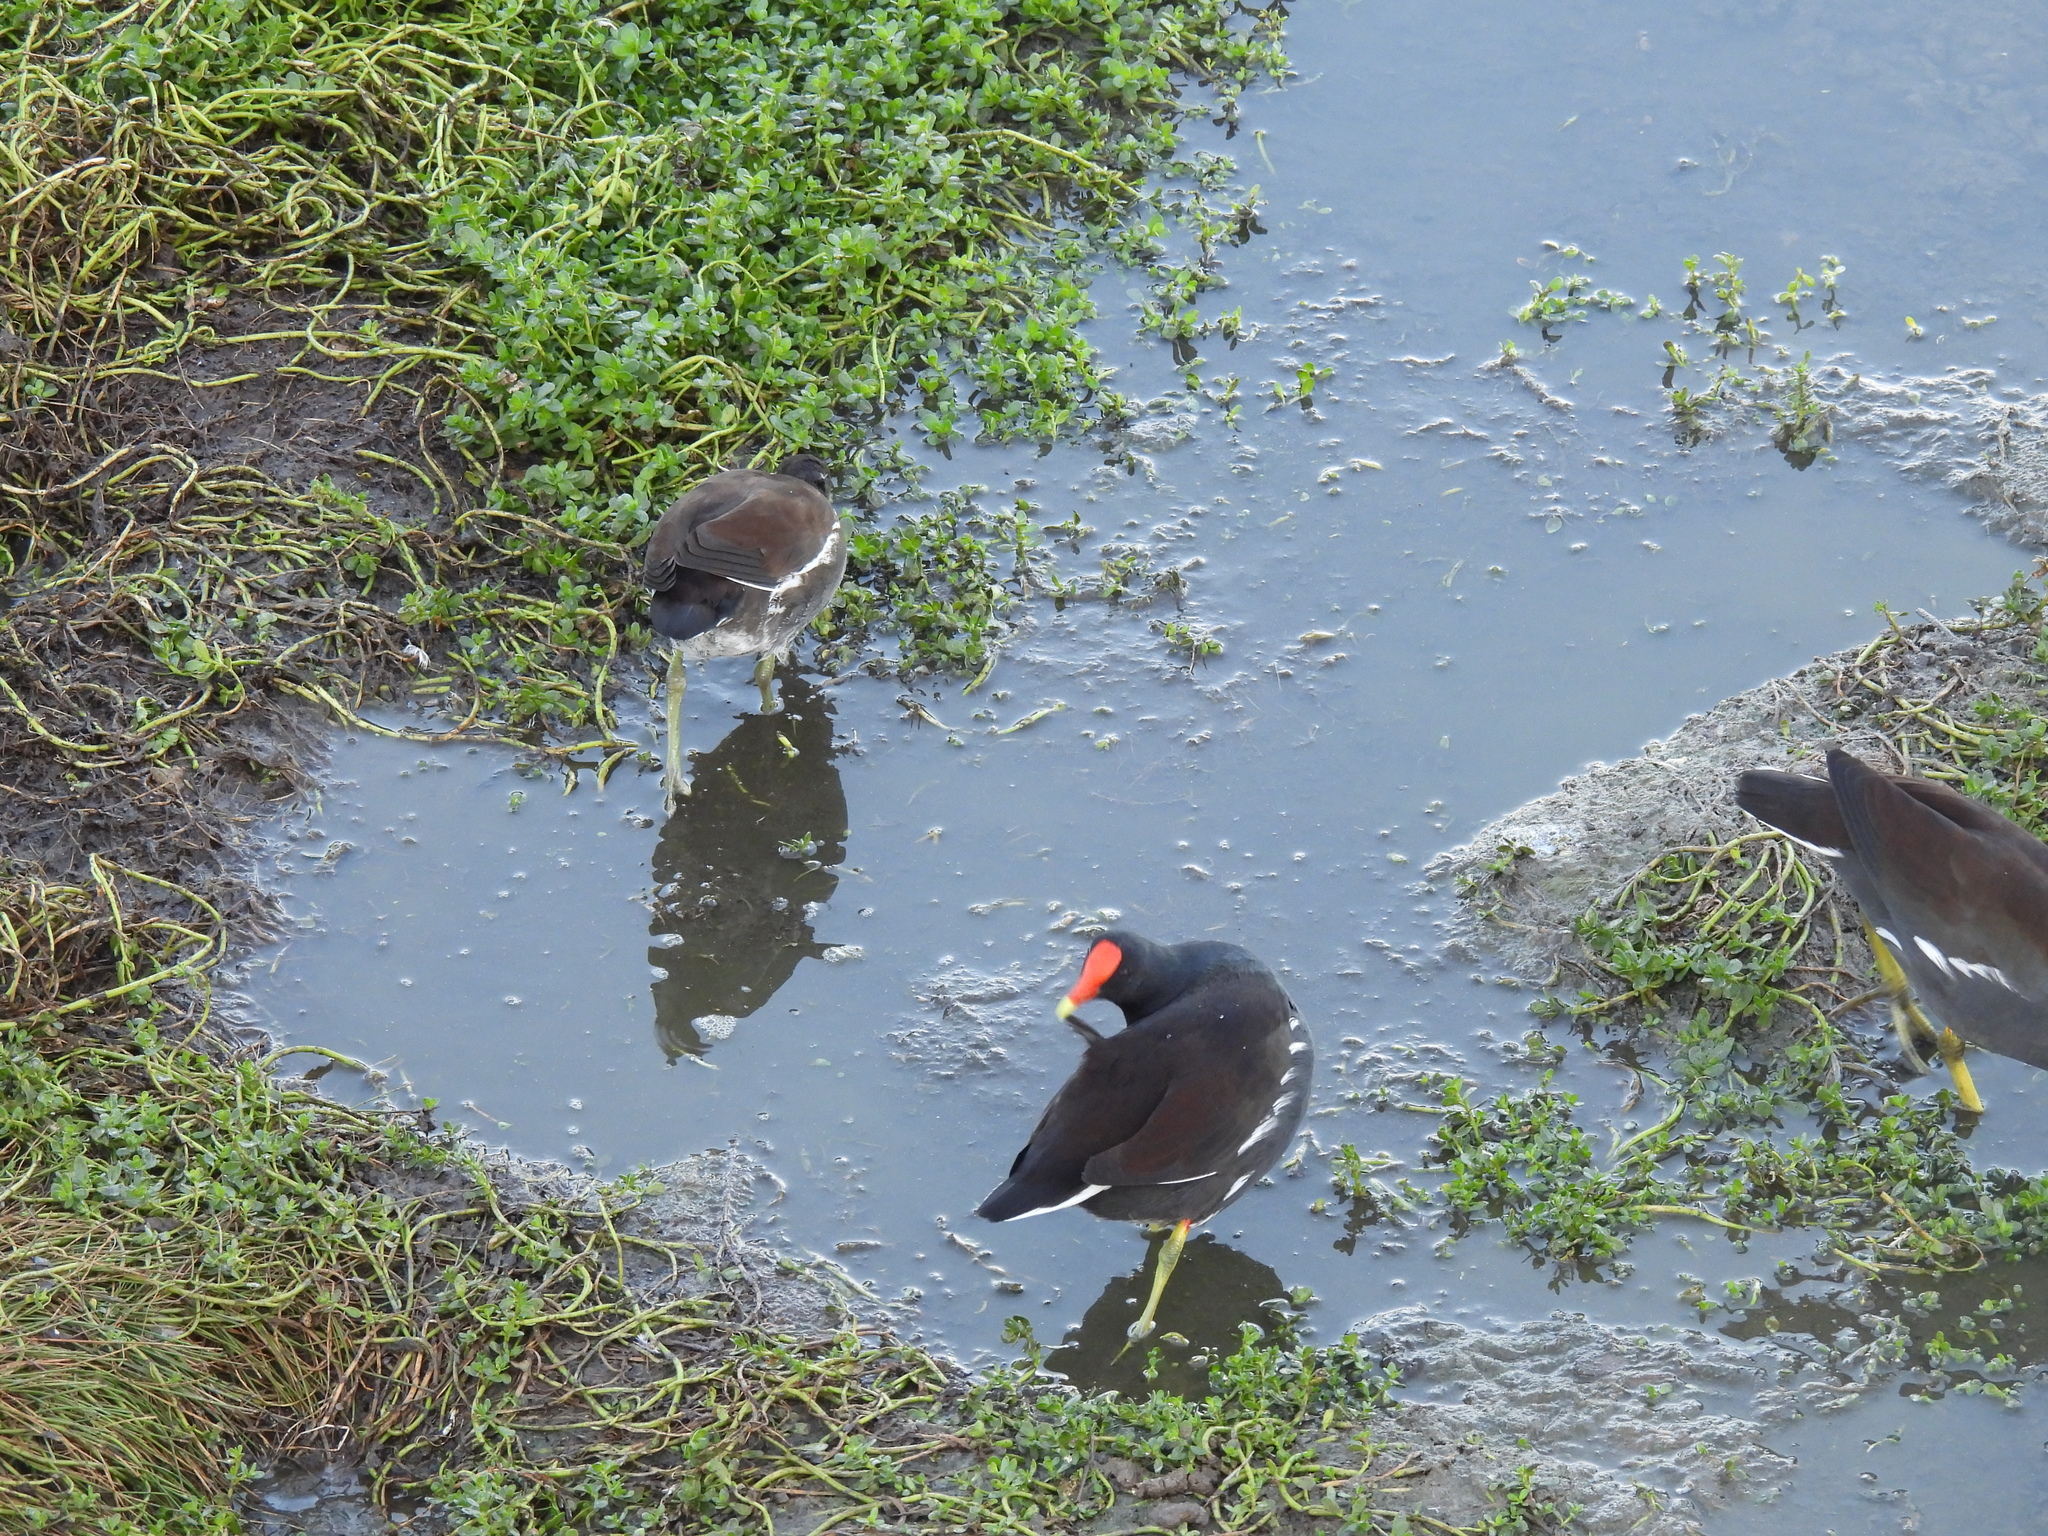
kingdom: Animalia
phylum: Chordata
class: Aves
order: Gruiformes
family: Rallidae
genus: Gallinula
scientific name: Gallinula chloropus
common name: Common moorhen
